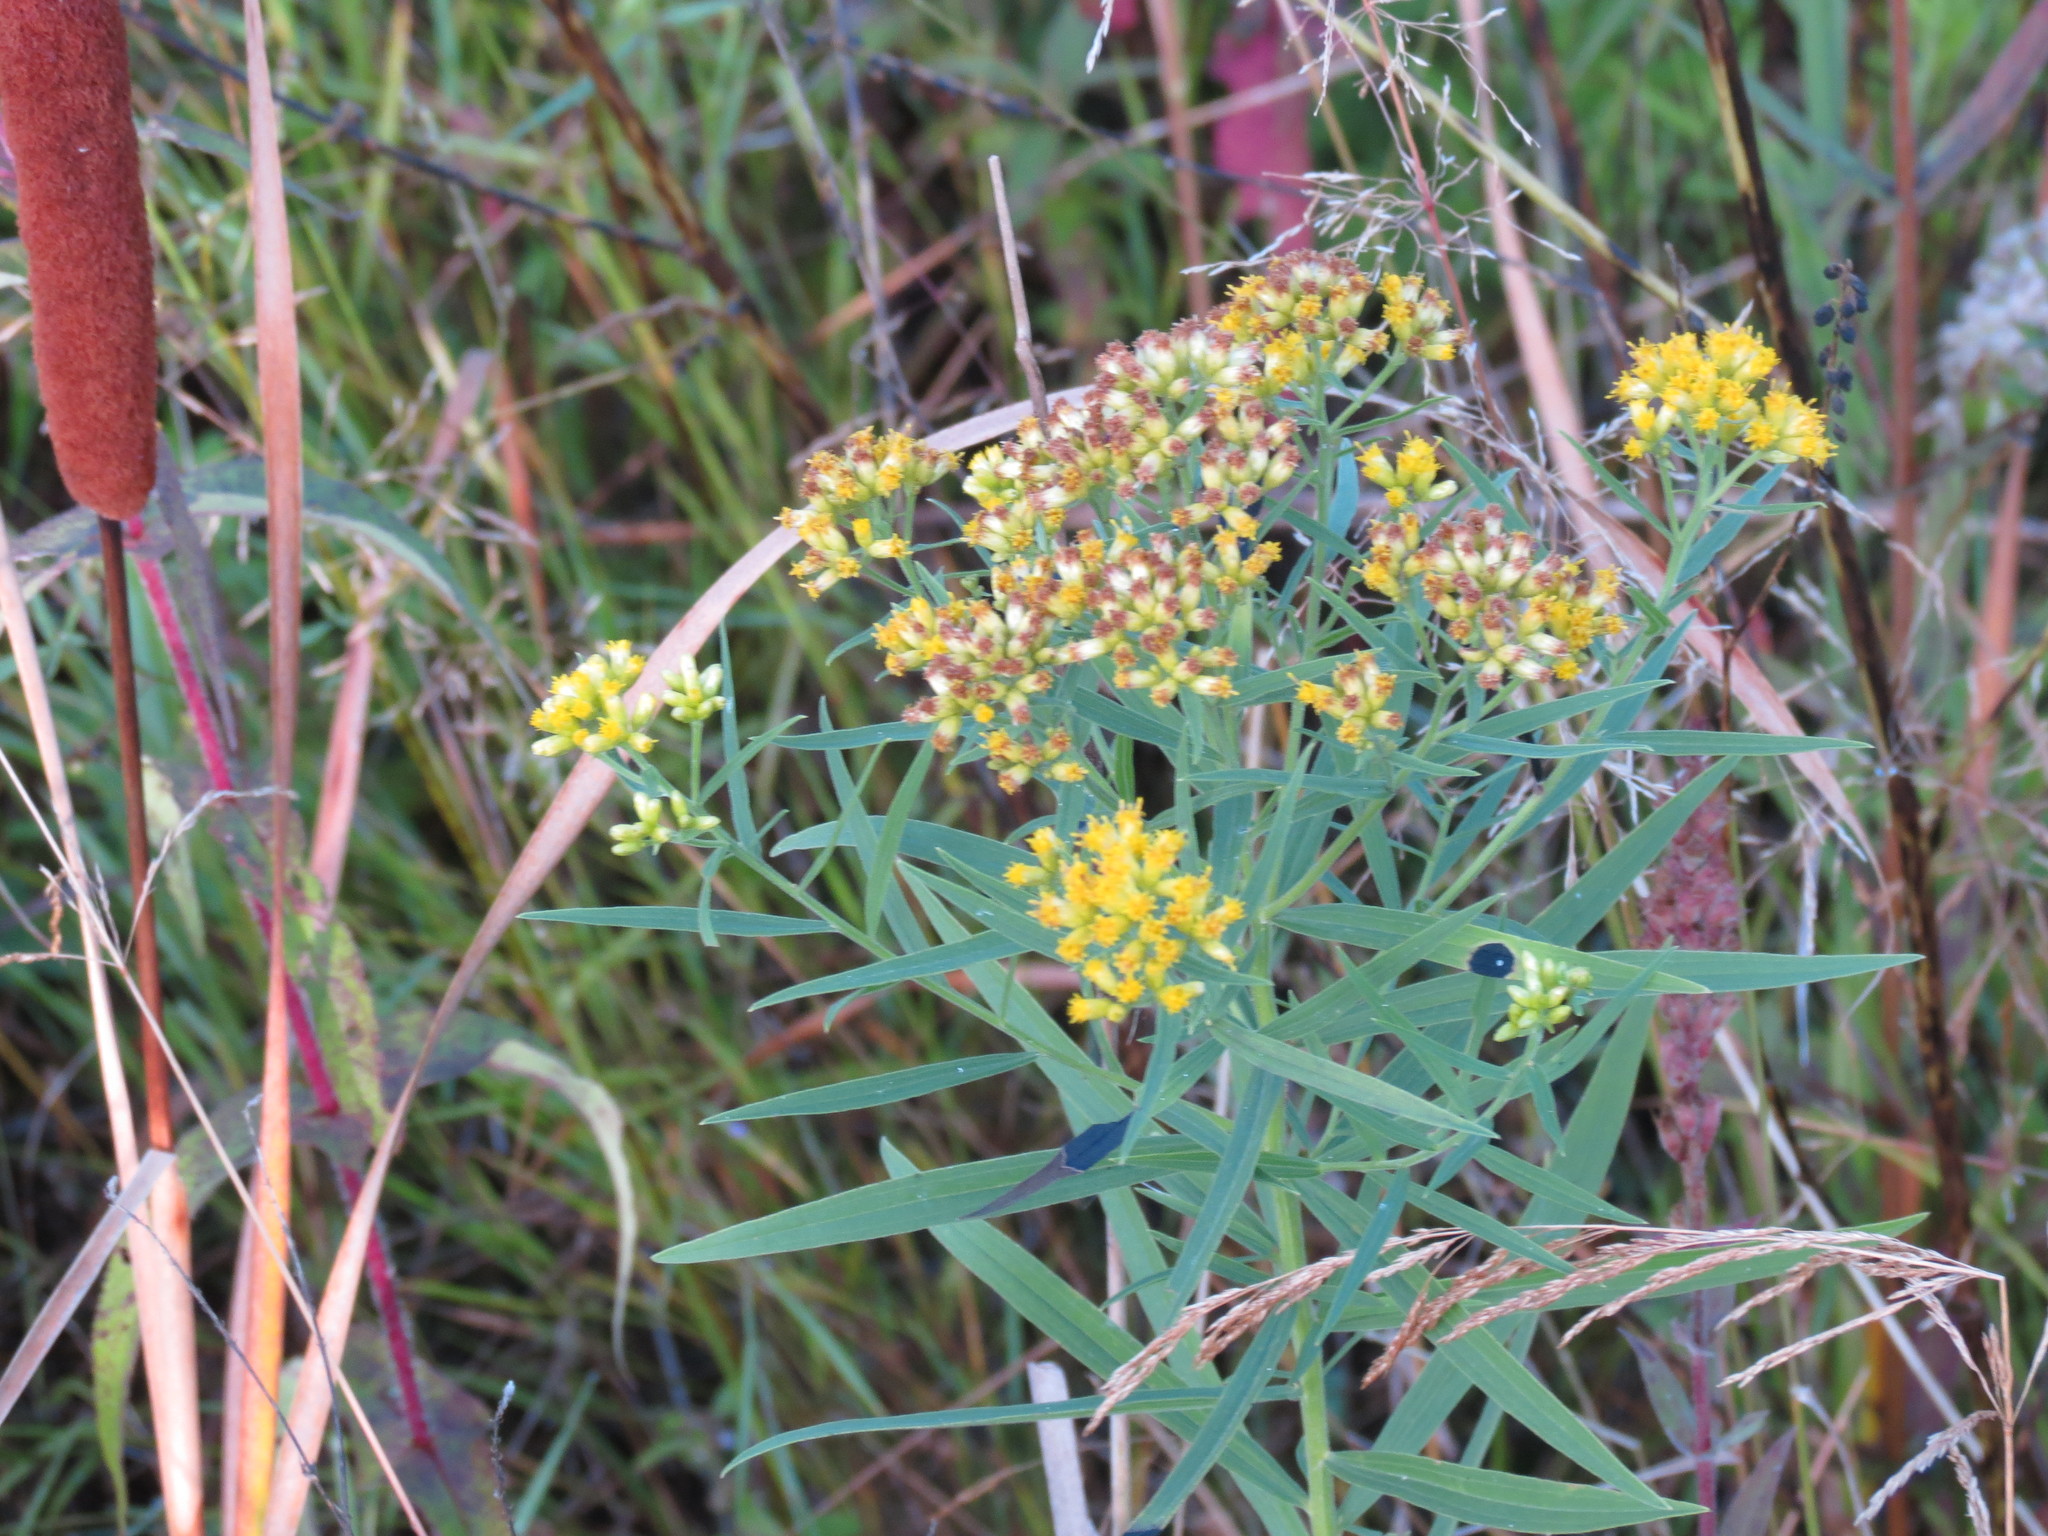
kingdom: Plantae
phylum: Tracheophyta
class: Magnoliopsida
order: Asterales
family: Asteraceae
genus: Euthamia
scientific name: Euthamia graminifolia
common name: Common goldentop
